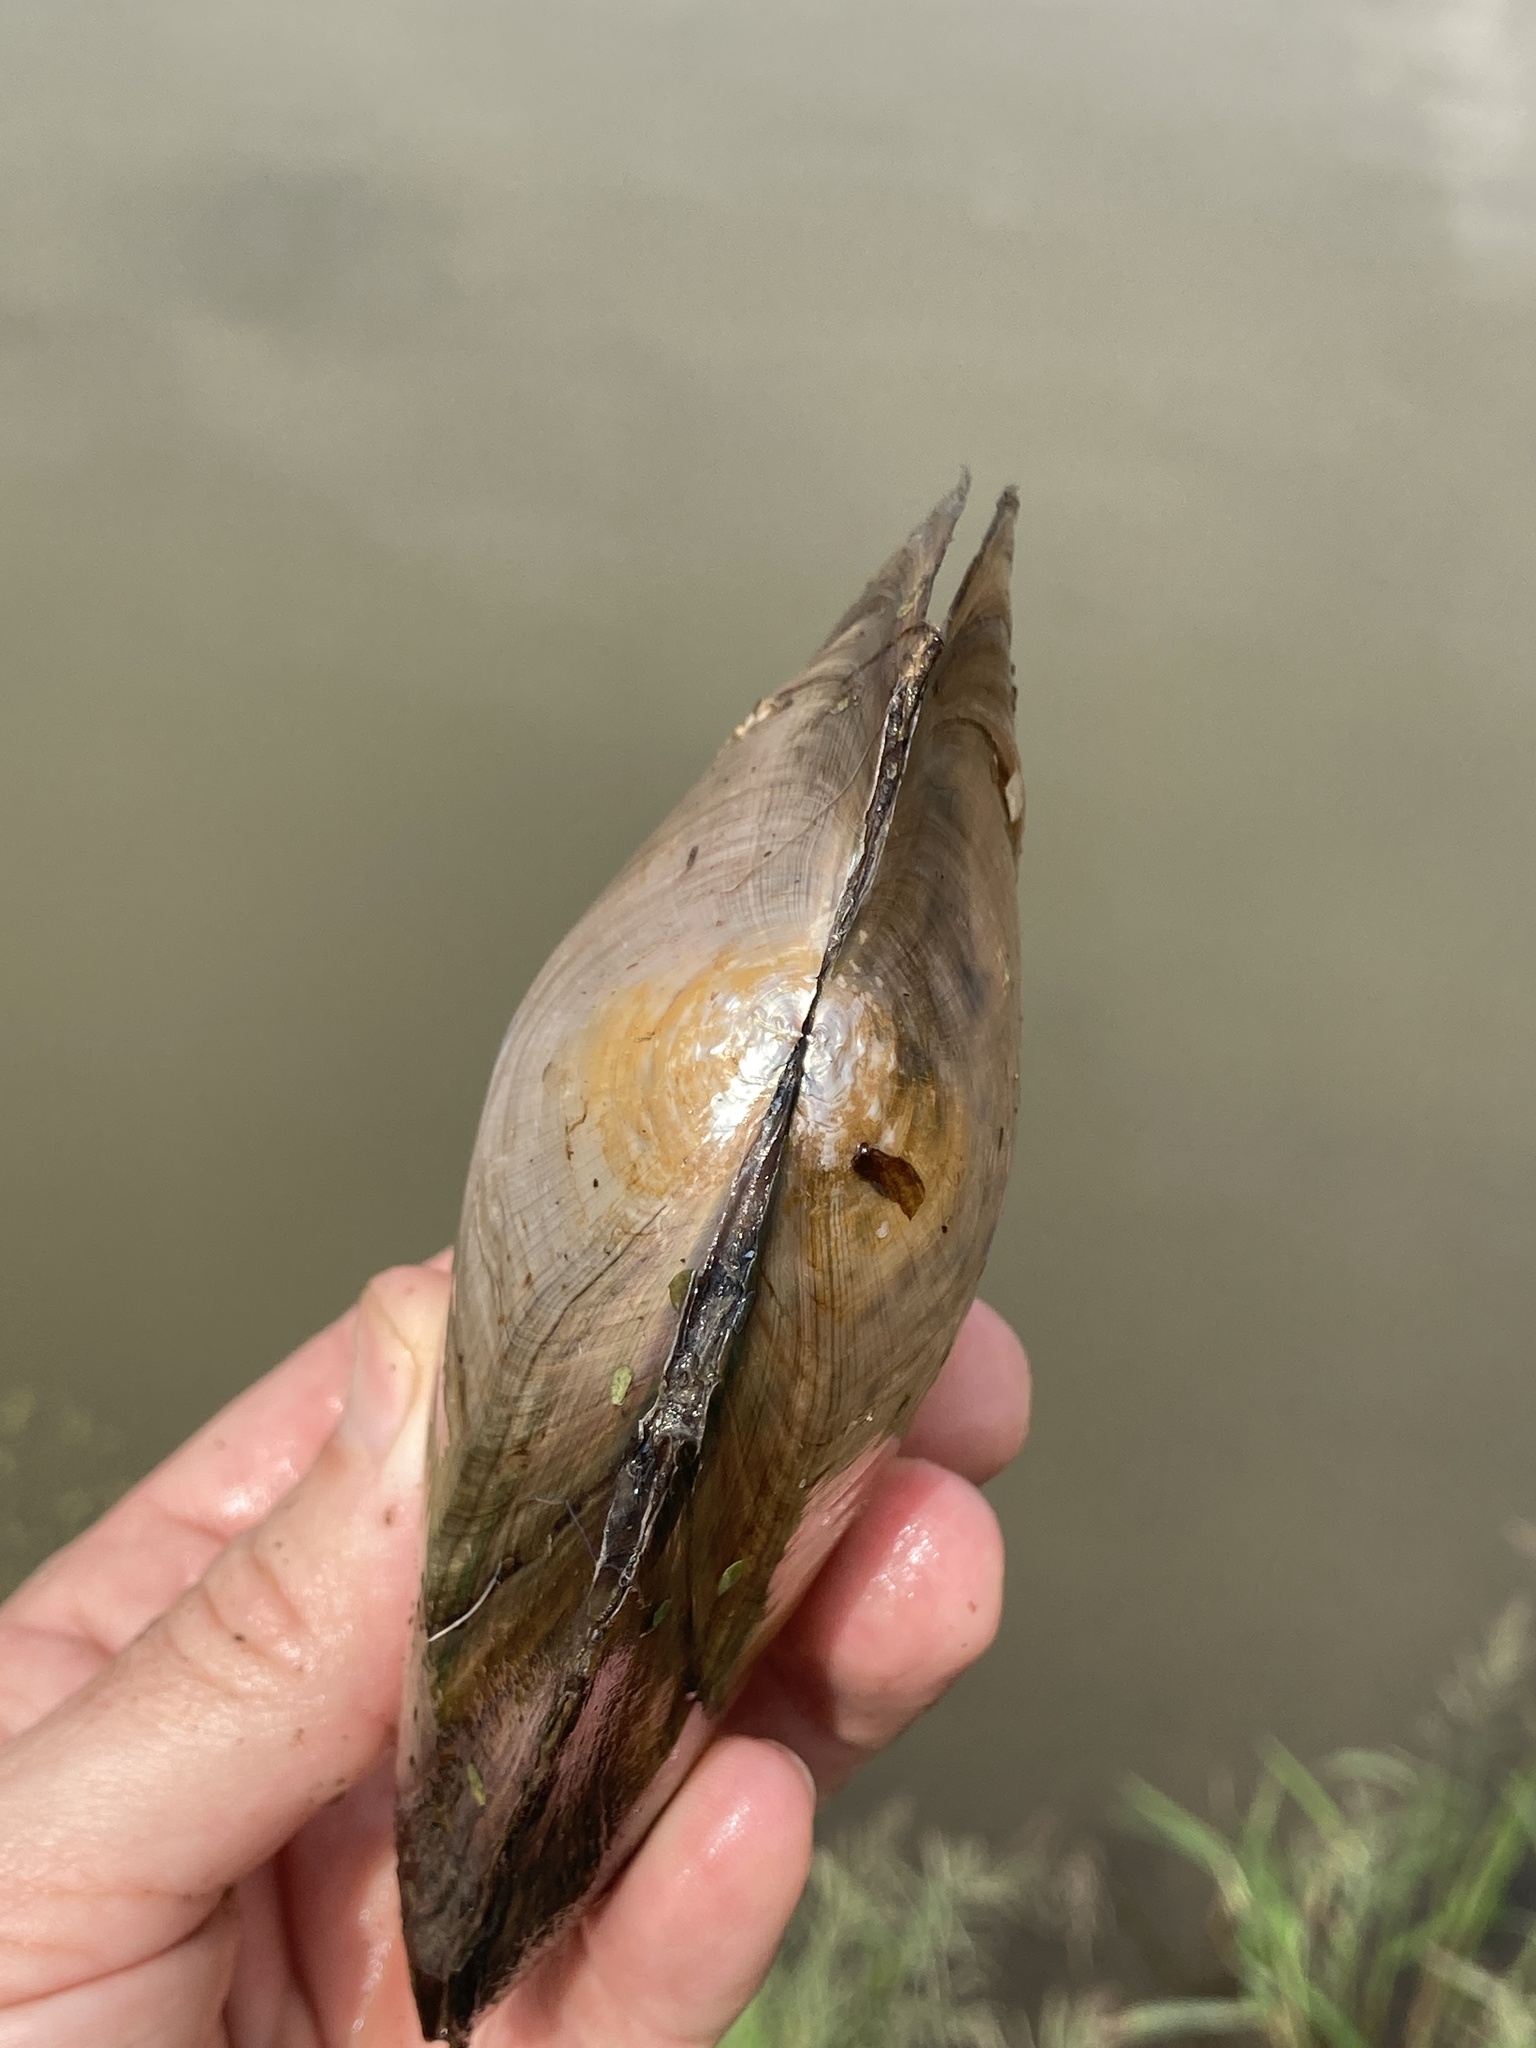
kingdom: Animalia
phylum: Mollusca
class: Bivalvia
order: Unionida
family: Unionidae
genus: Utterbackiana
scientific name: Utterbackiana suborbiculata
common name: Flat floater
